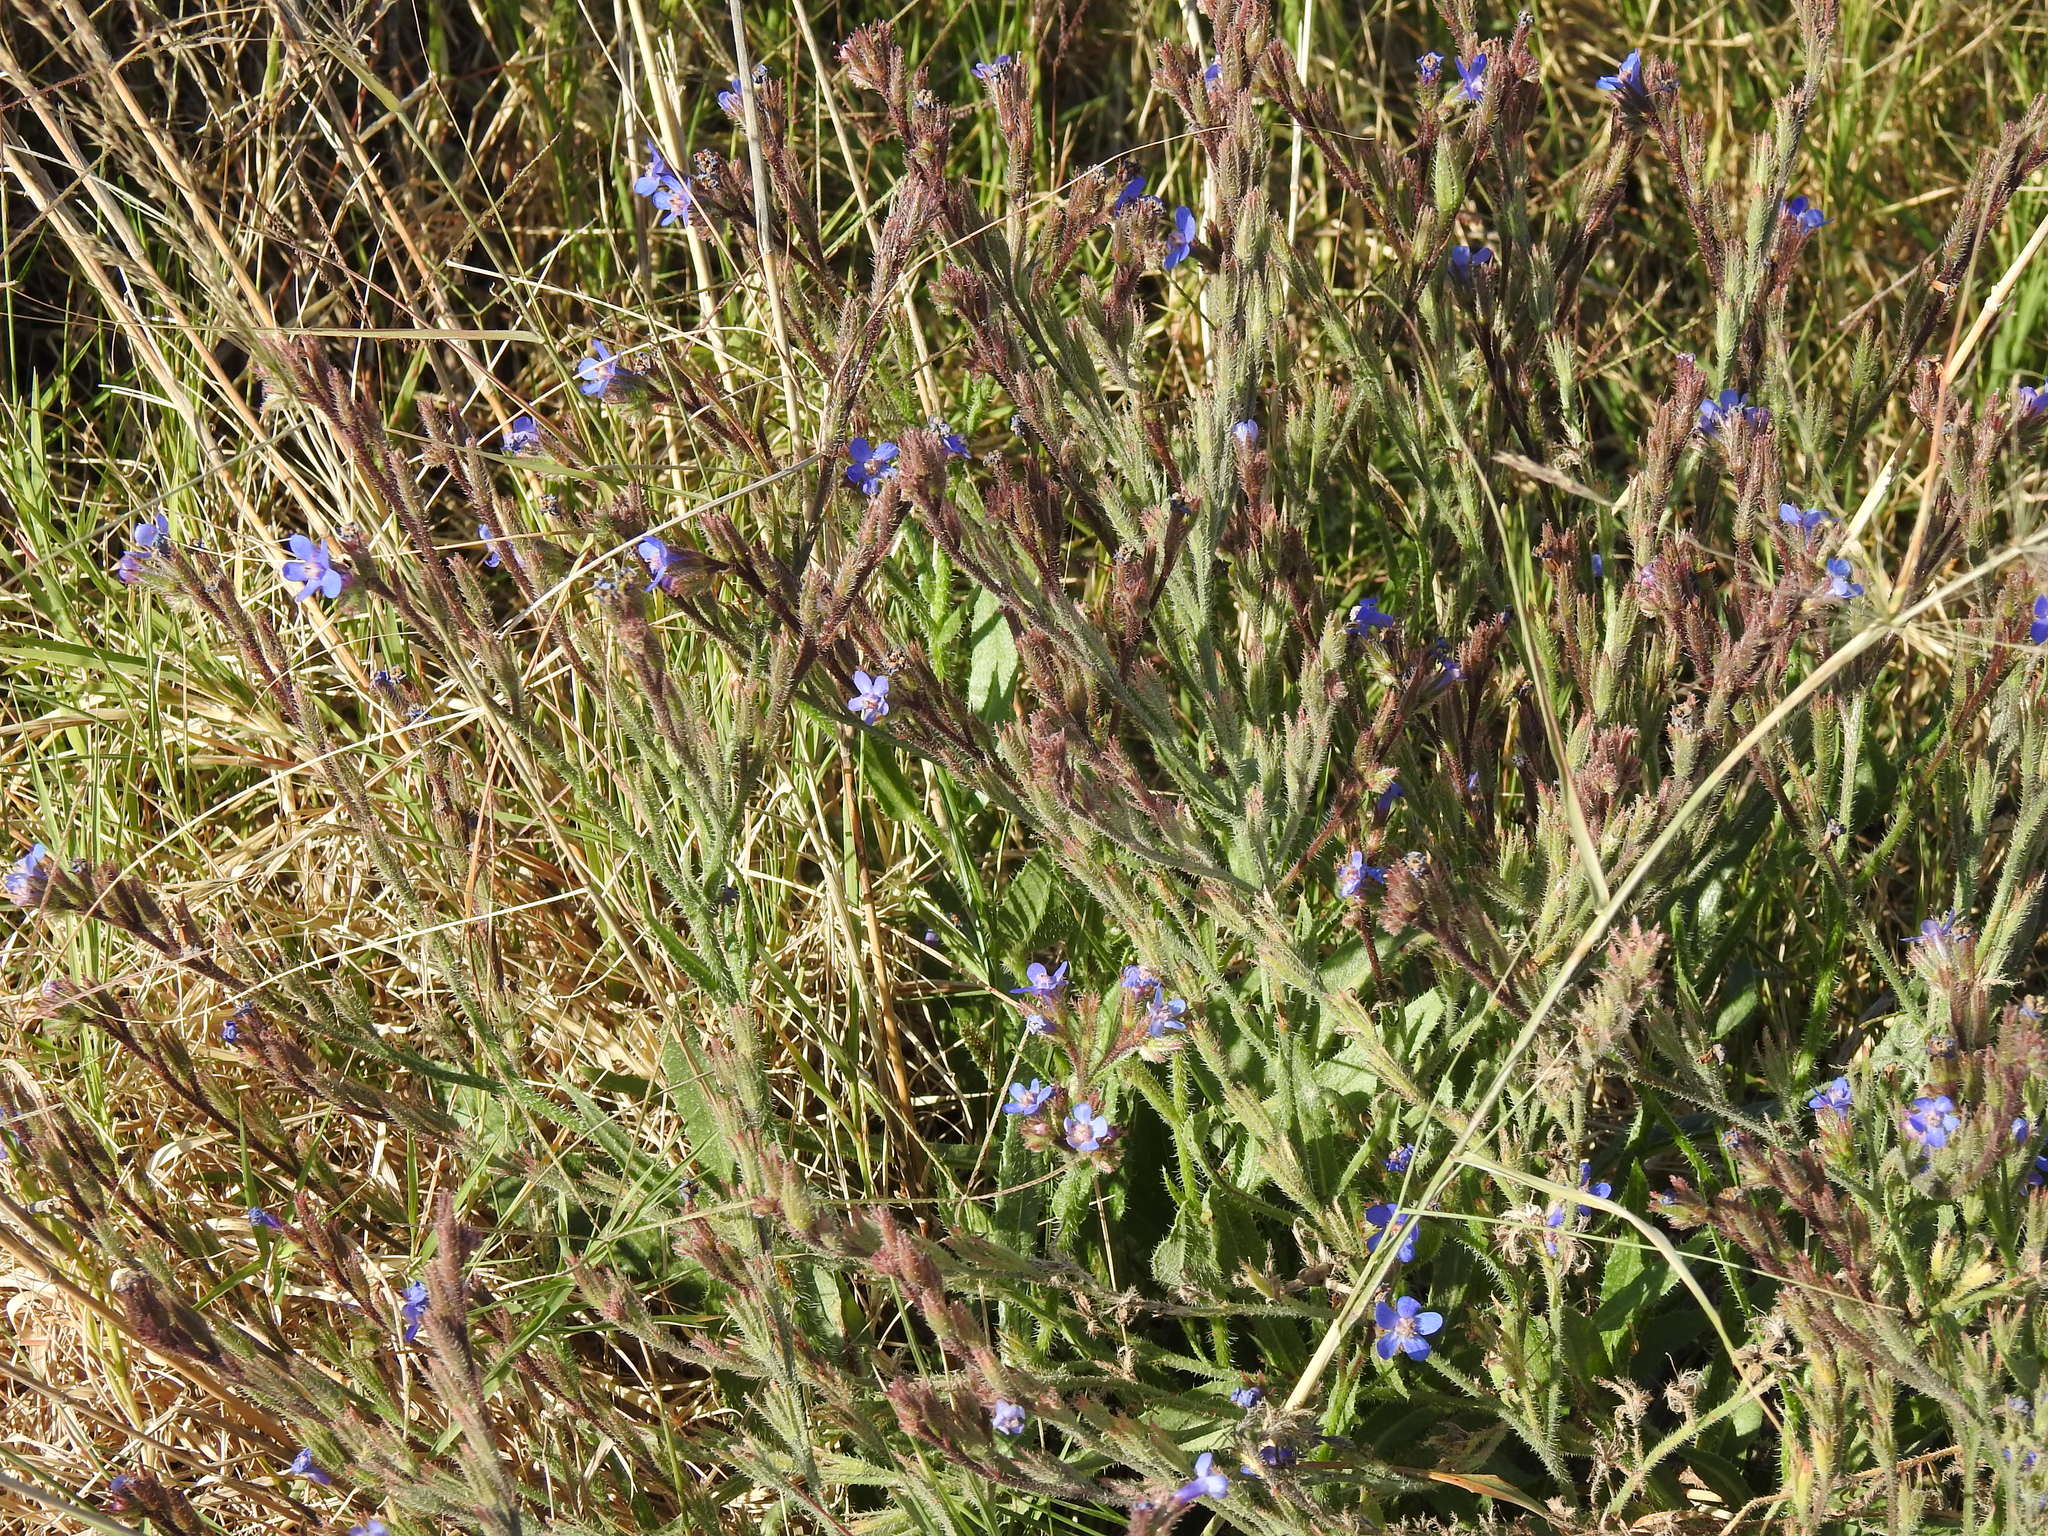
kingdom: Plantae
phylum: Tracheophyta
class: Magnoliopsida
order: Boraginales
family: Boraginaceae
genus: Anchusa
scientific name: Anchusa azurea
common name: Garden anchusa
